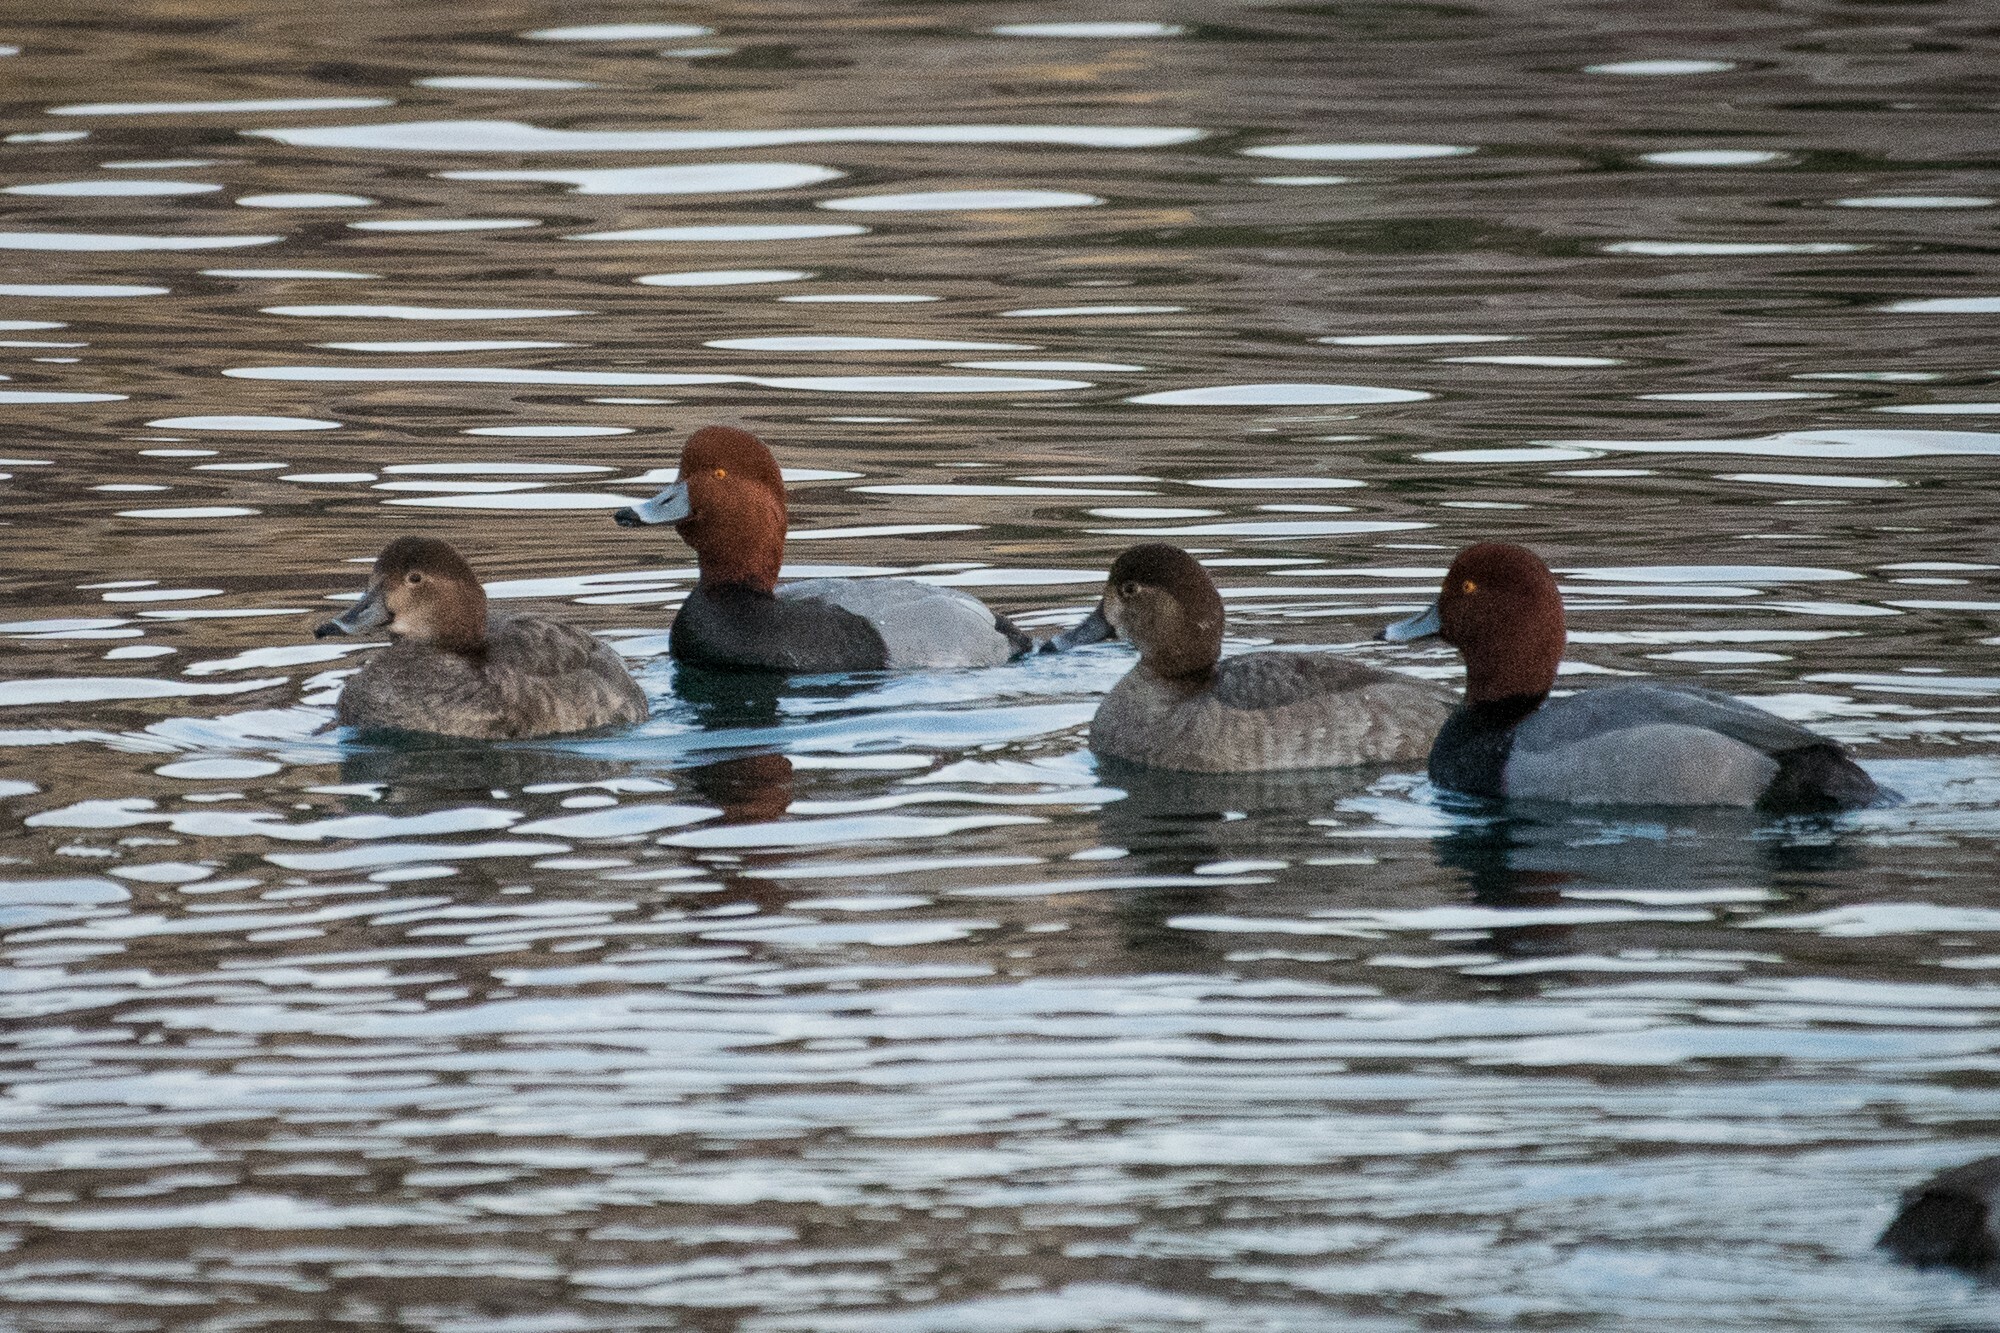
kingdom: Animalia
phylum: Chordata
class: Aves
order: Anseriformes
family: Anatidae
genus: Aythya
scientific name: Aythya americana
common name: Redhead
